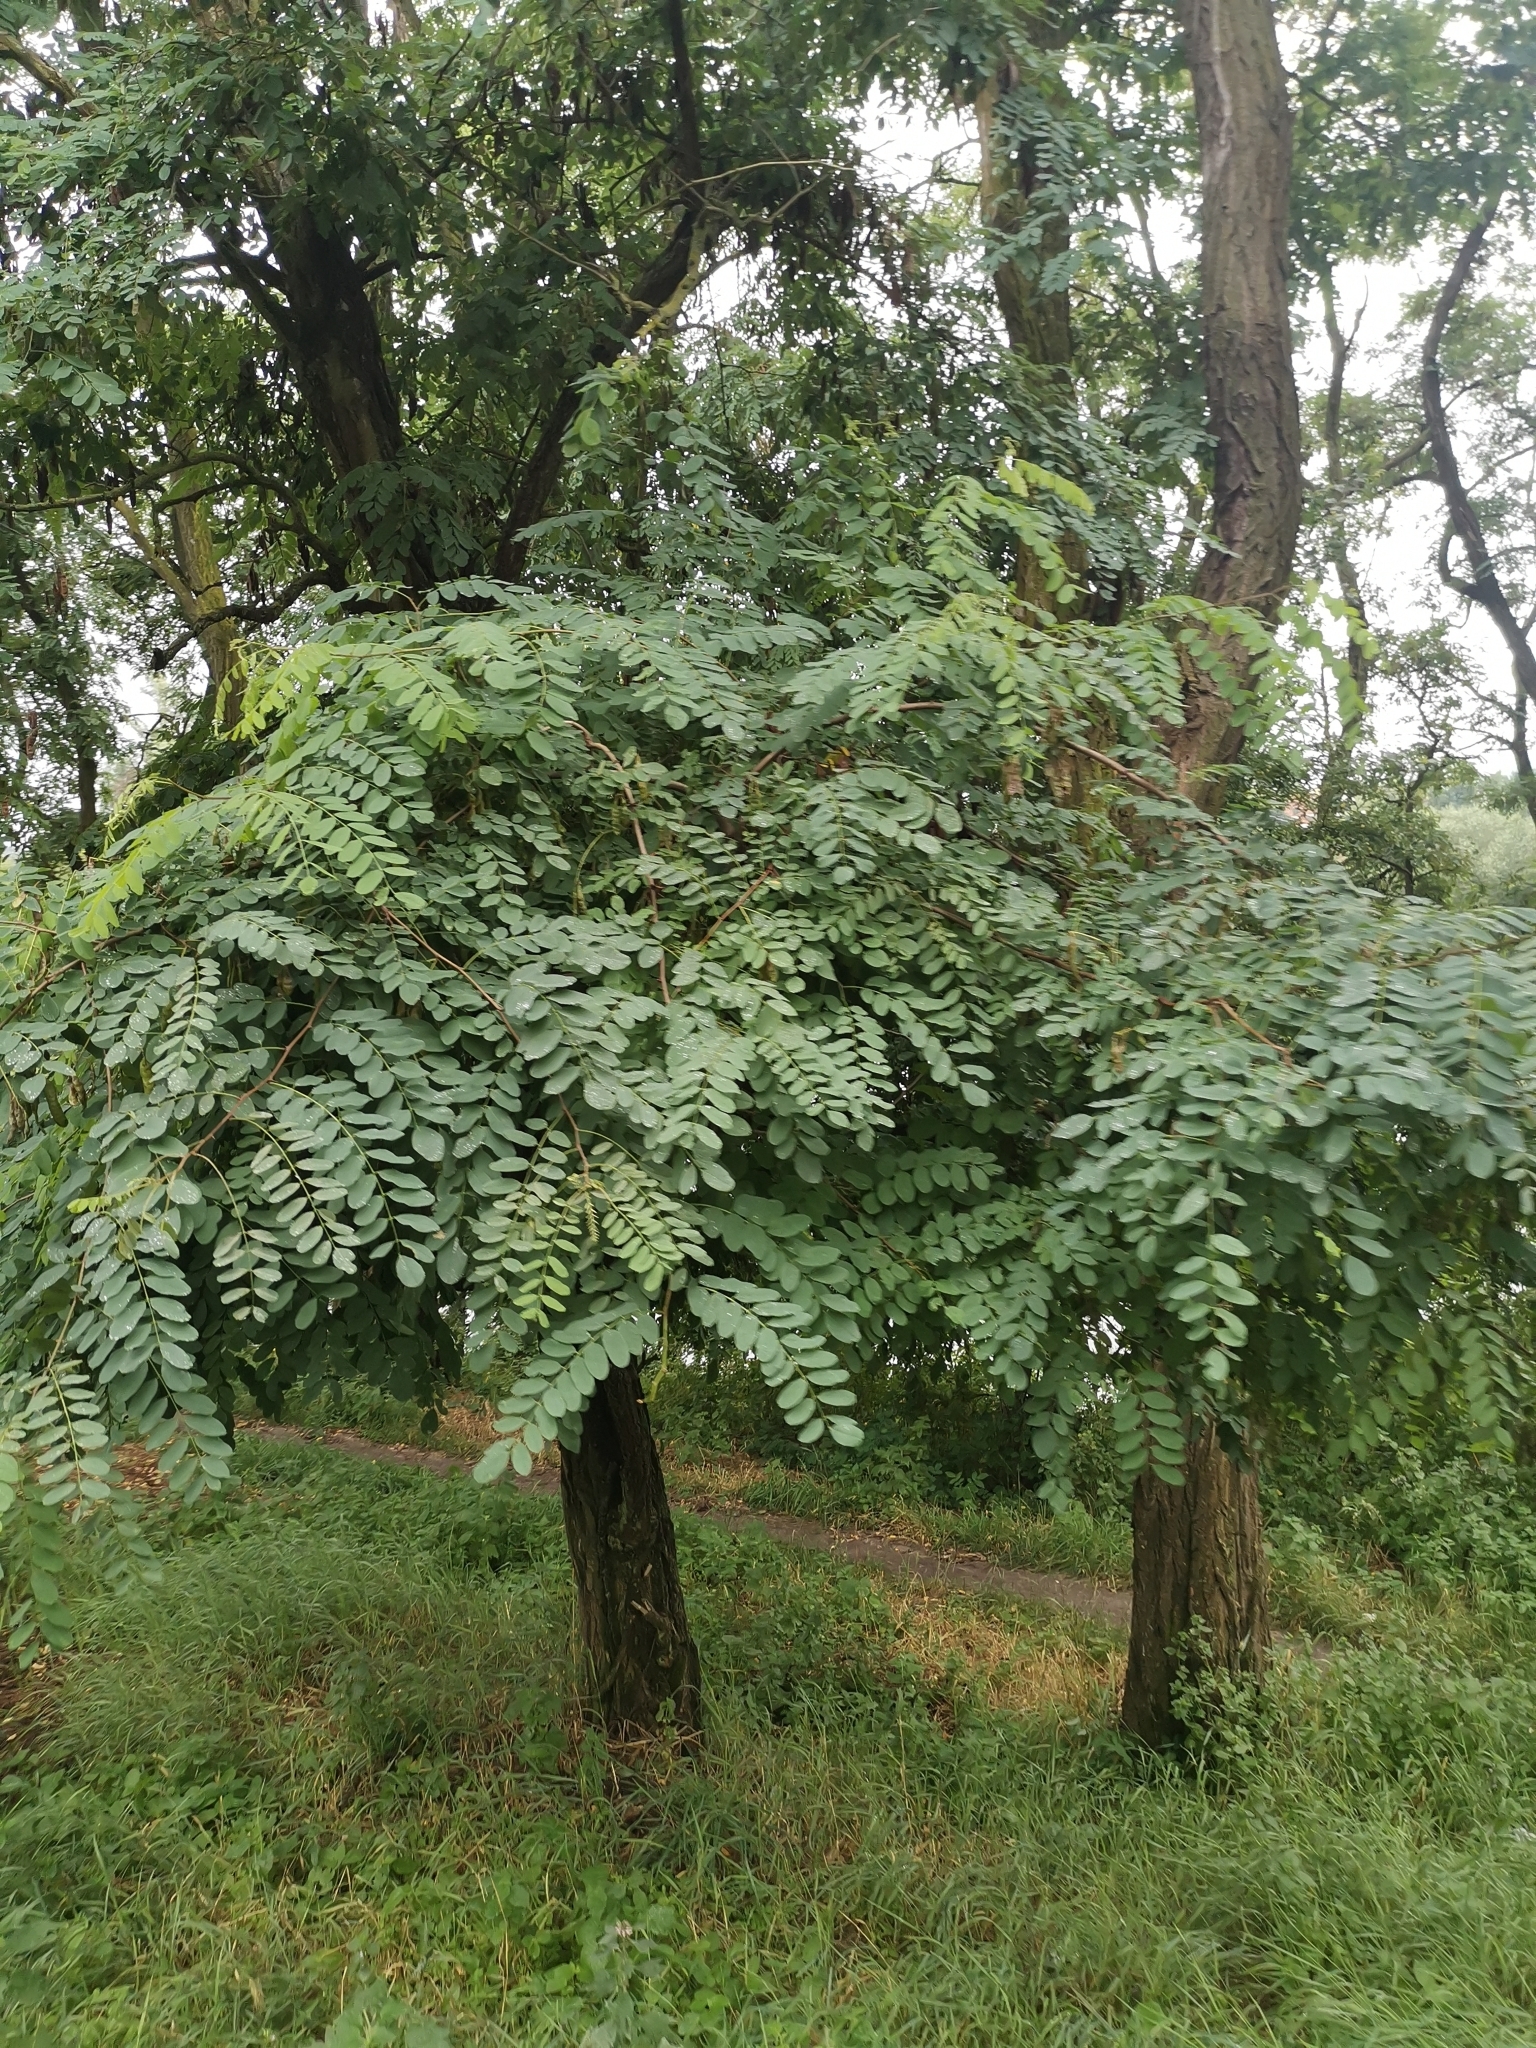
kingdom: Plantae
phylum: Tracheophyta
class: Magnoliopsida
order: Fabales
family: Fabaceae
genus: Robinia
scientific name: Robinia pseudoacacia
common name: Black locust
